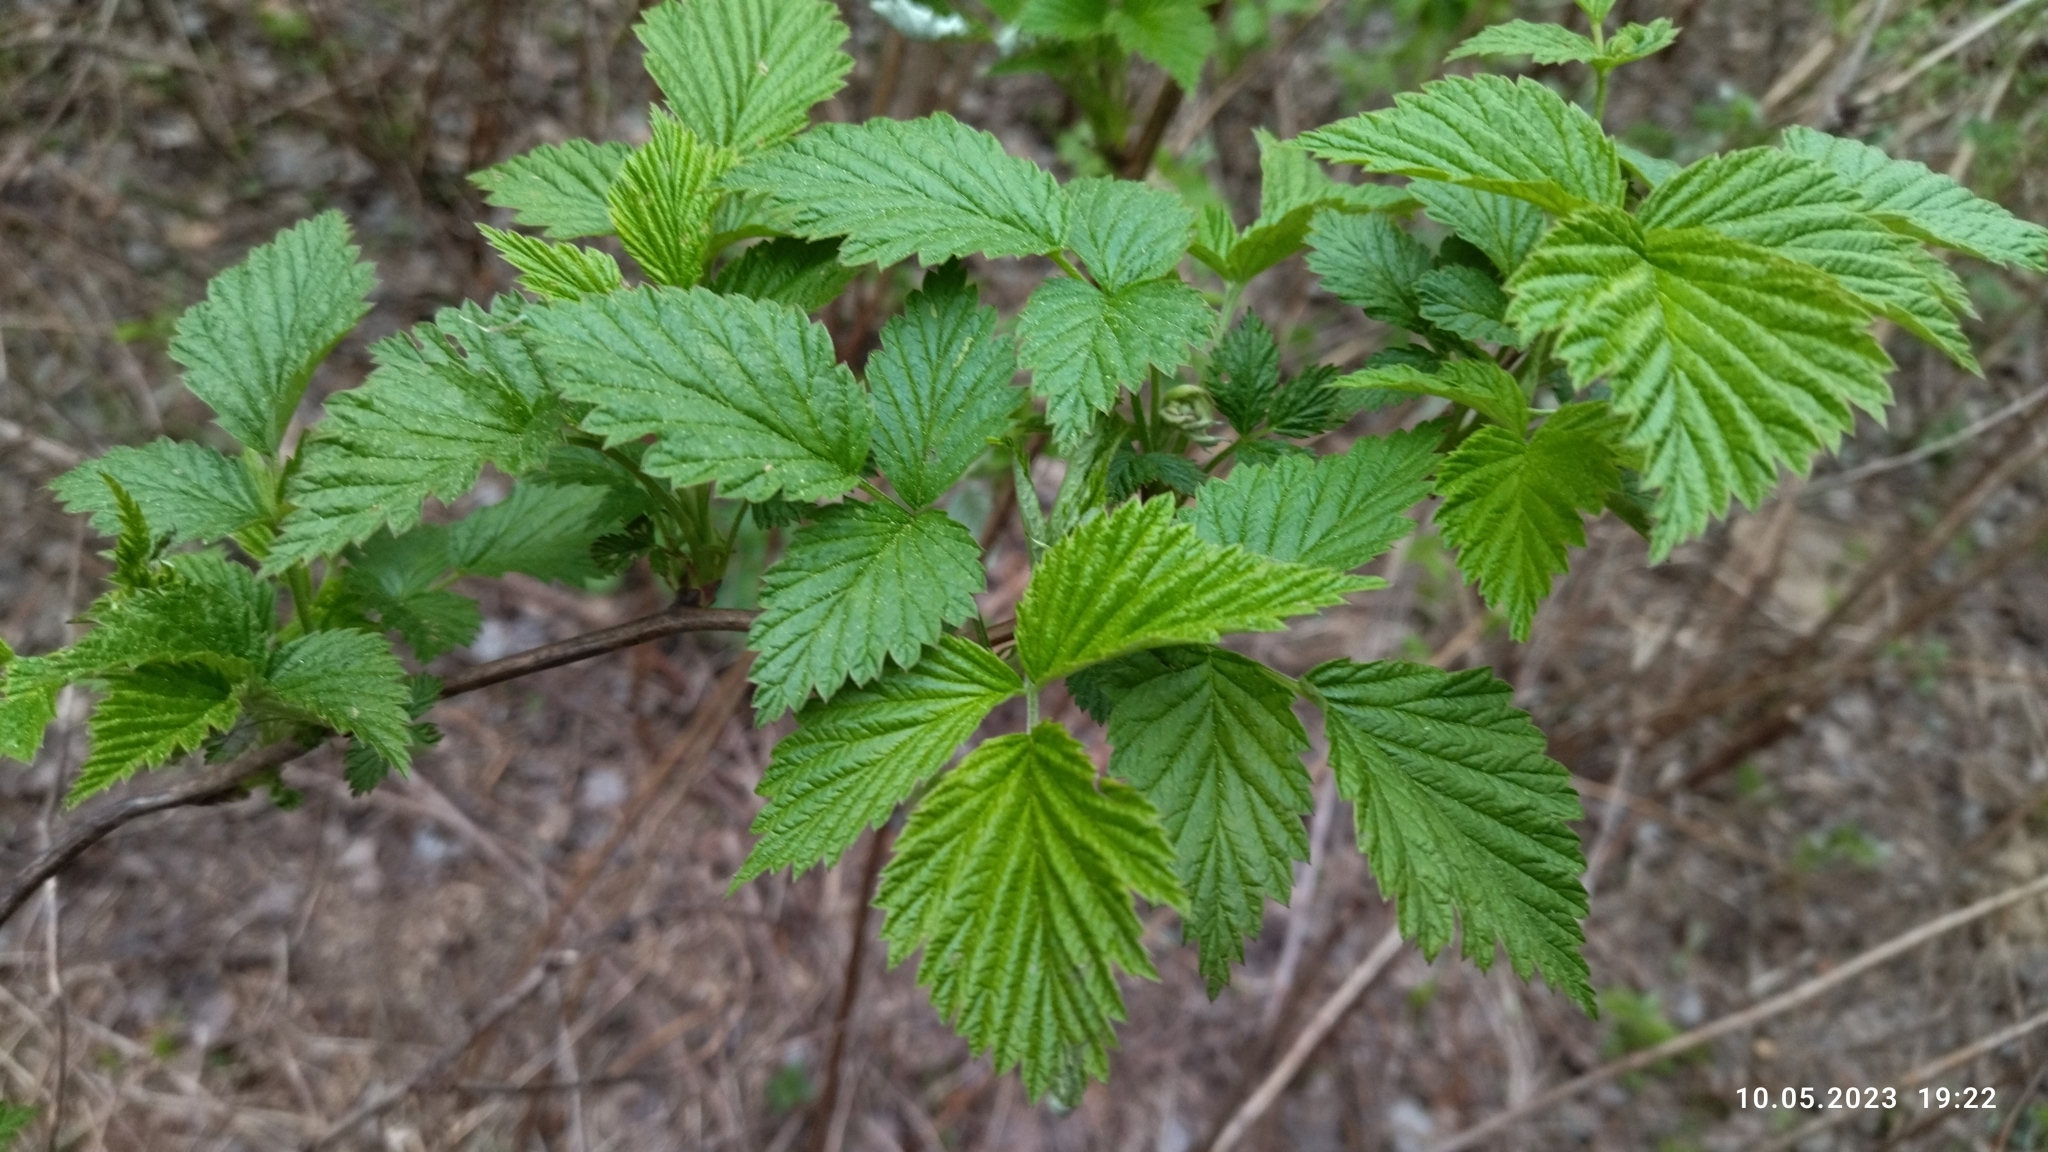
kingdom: Plantae
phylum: Tracheophyta
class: Magnoliopsida
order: Rosales
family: Rosaceae
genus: Rubus
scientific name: Rubus idaeus
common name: Raspberry
